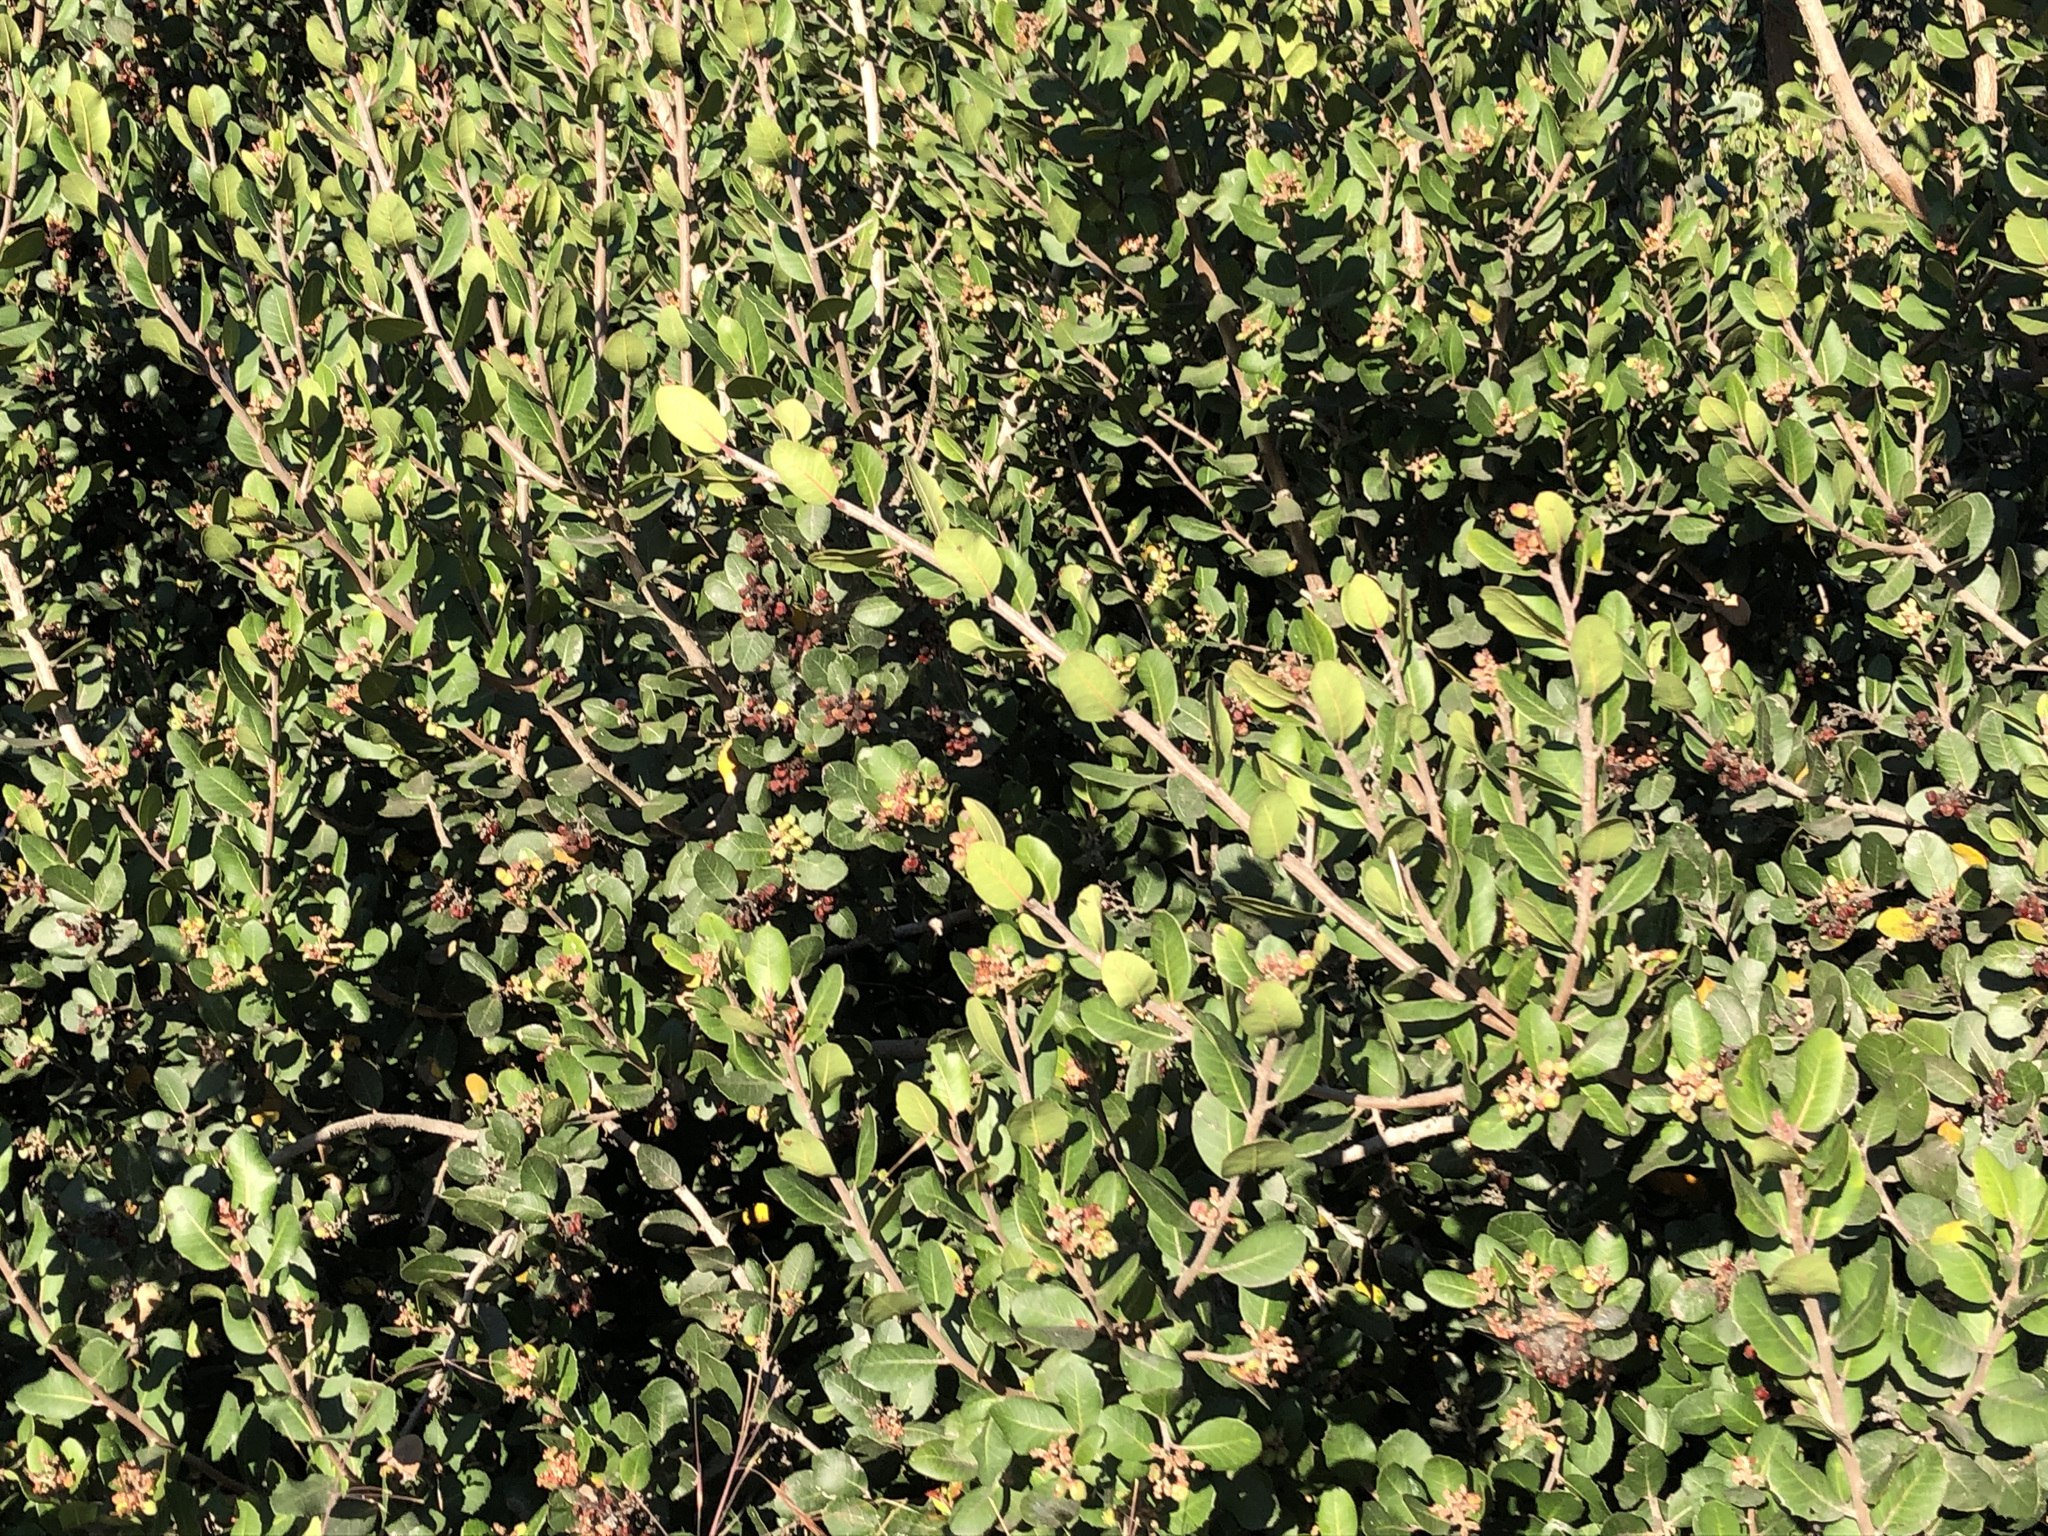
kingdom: Plantae
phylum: Tracheophyta
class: Magnoliopsida
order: Sapindales
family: Anacardiaceae
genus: Rhus
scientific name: Rhus integrifolia
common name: Lemonade sumac
